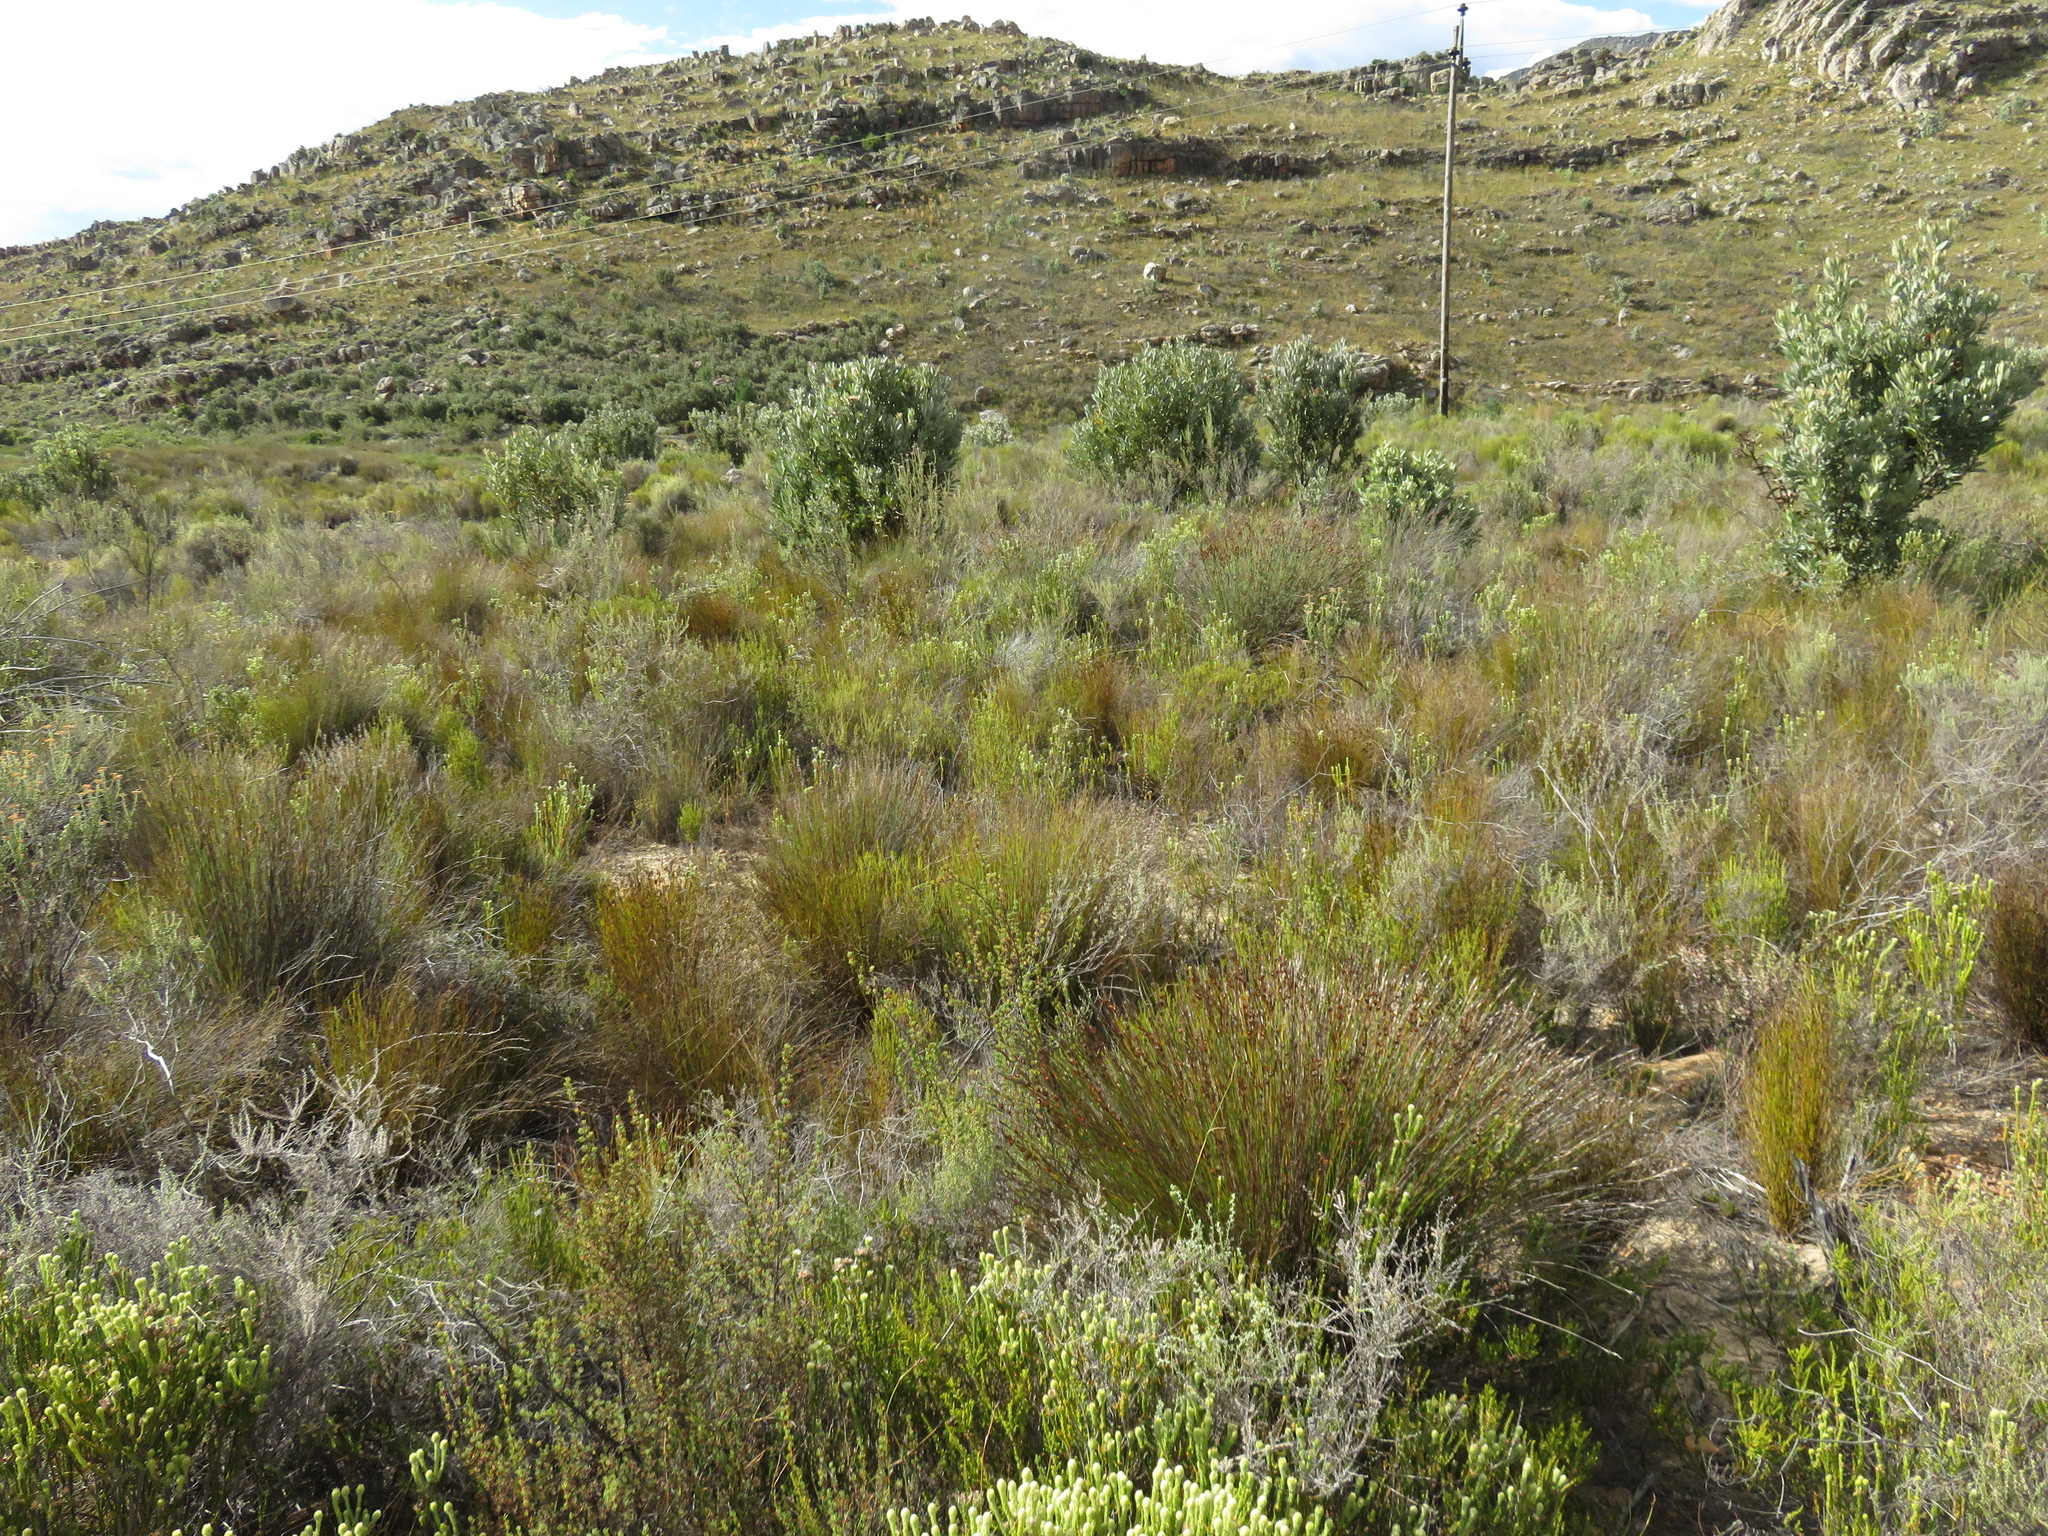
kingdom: Plantae
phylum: Tracheophyta
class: Magnoliopsida
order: Proteales
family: Proteaceae
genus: Protea
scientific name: Protea laurifolia
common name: Grey-leaf sugarbsh
